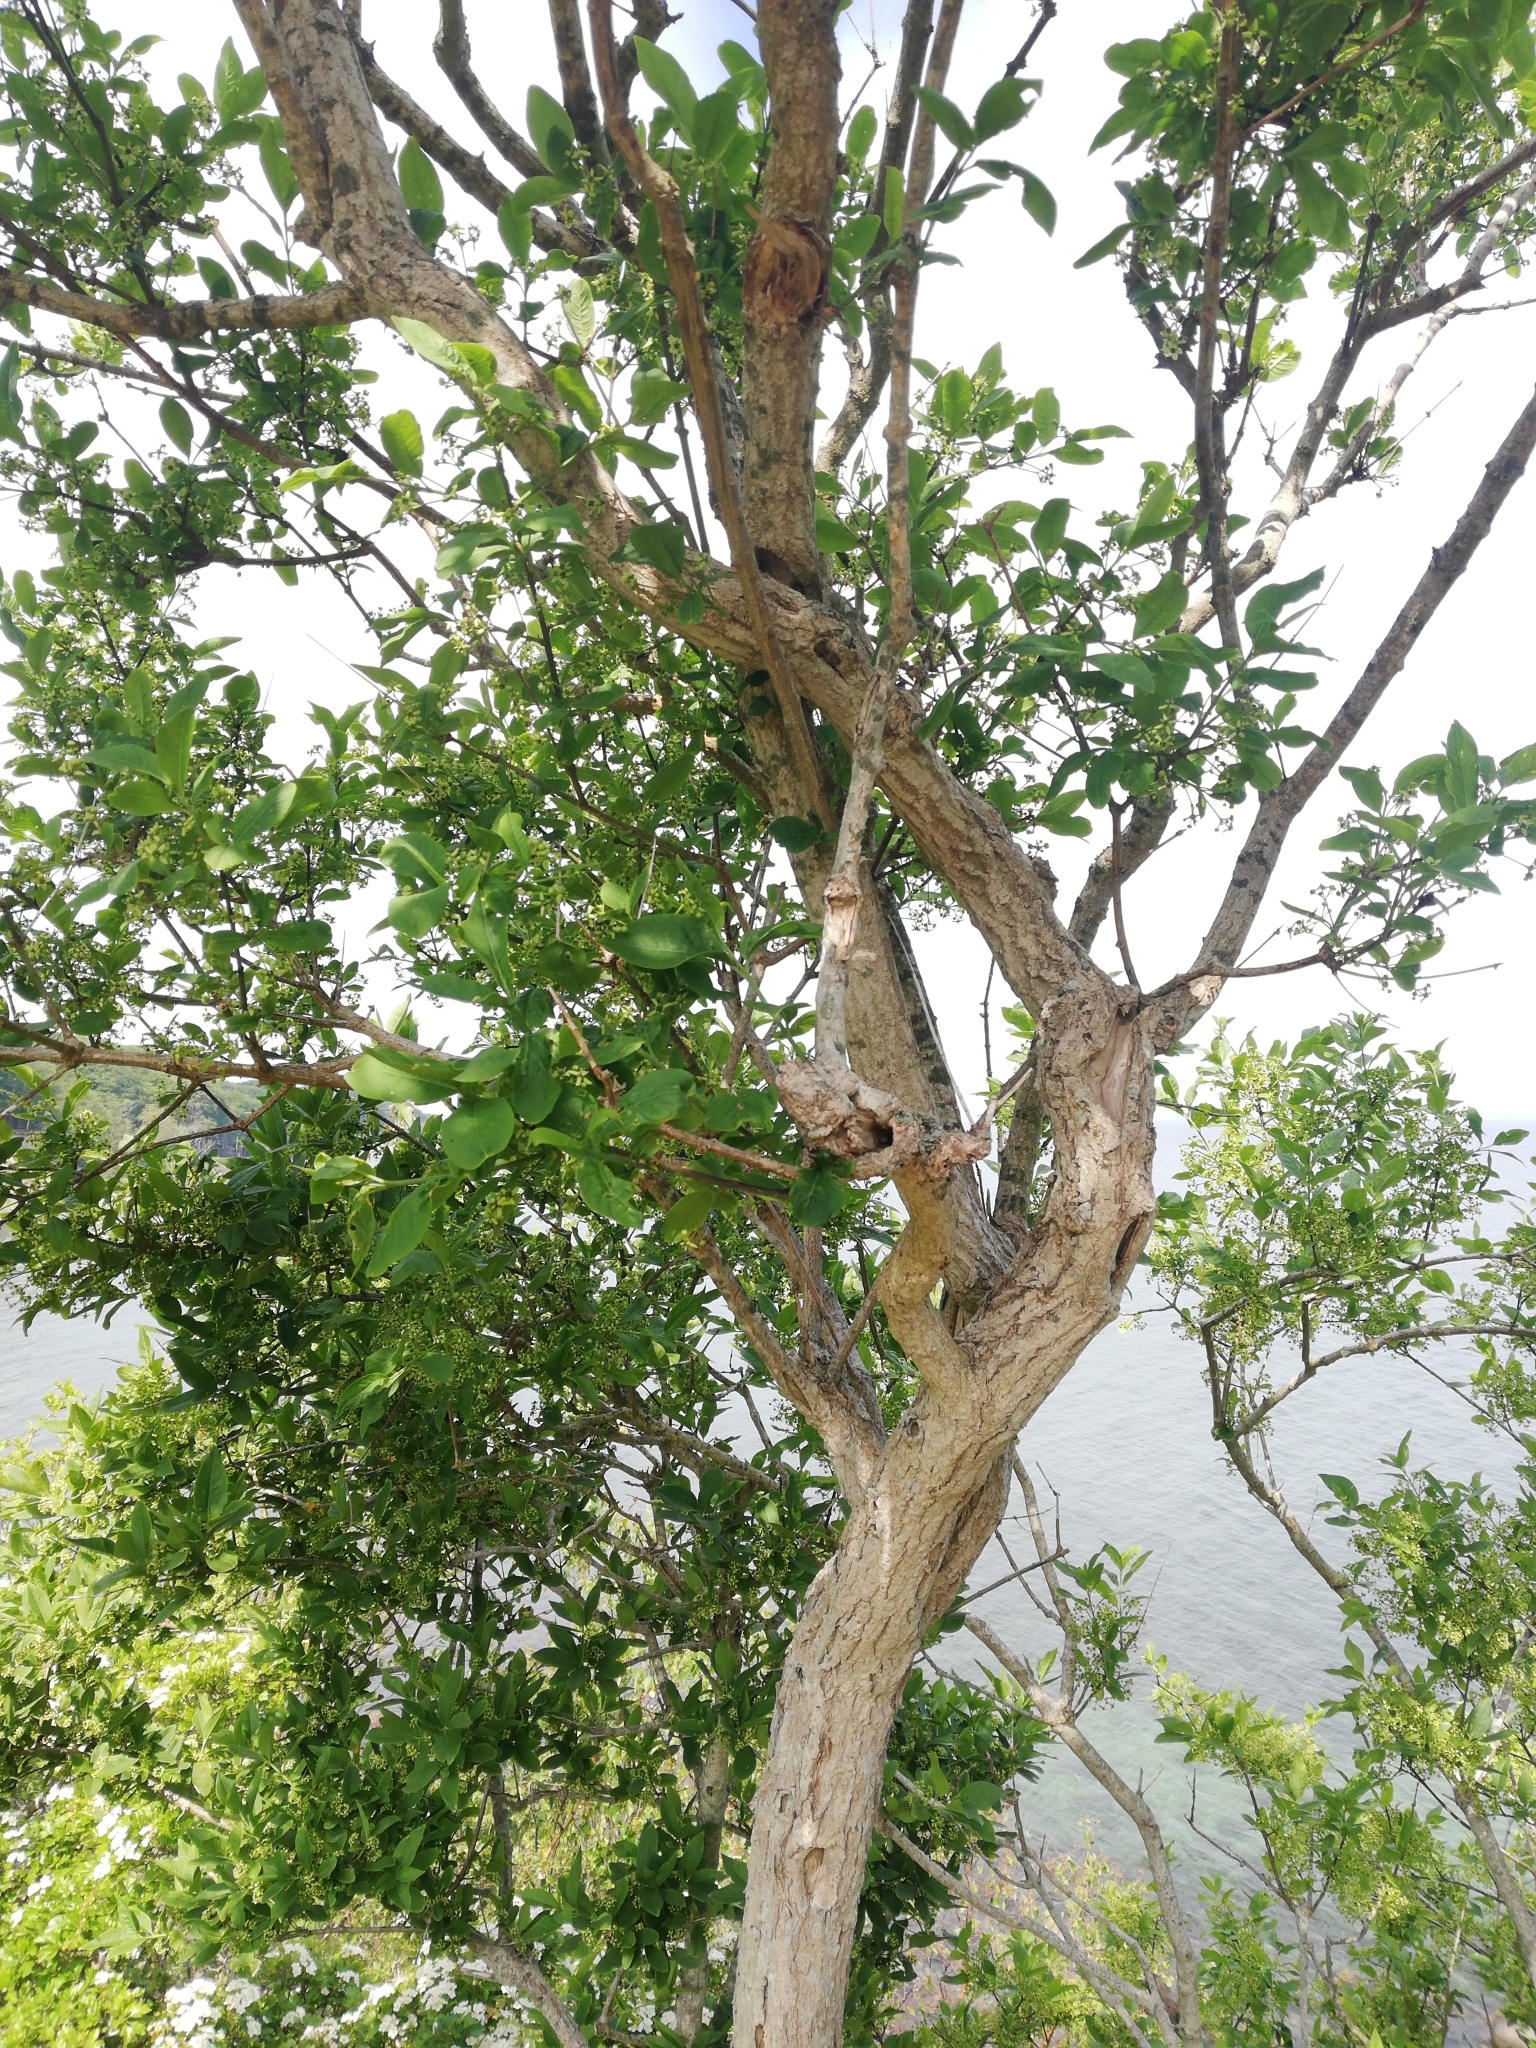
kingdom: Plantae
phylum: Tracheophyta
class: Magnoliopsida
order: Celastrales
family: Celastraceae
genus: Euonymus
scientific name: Euonymus europaeus
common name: Spindle
